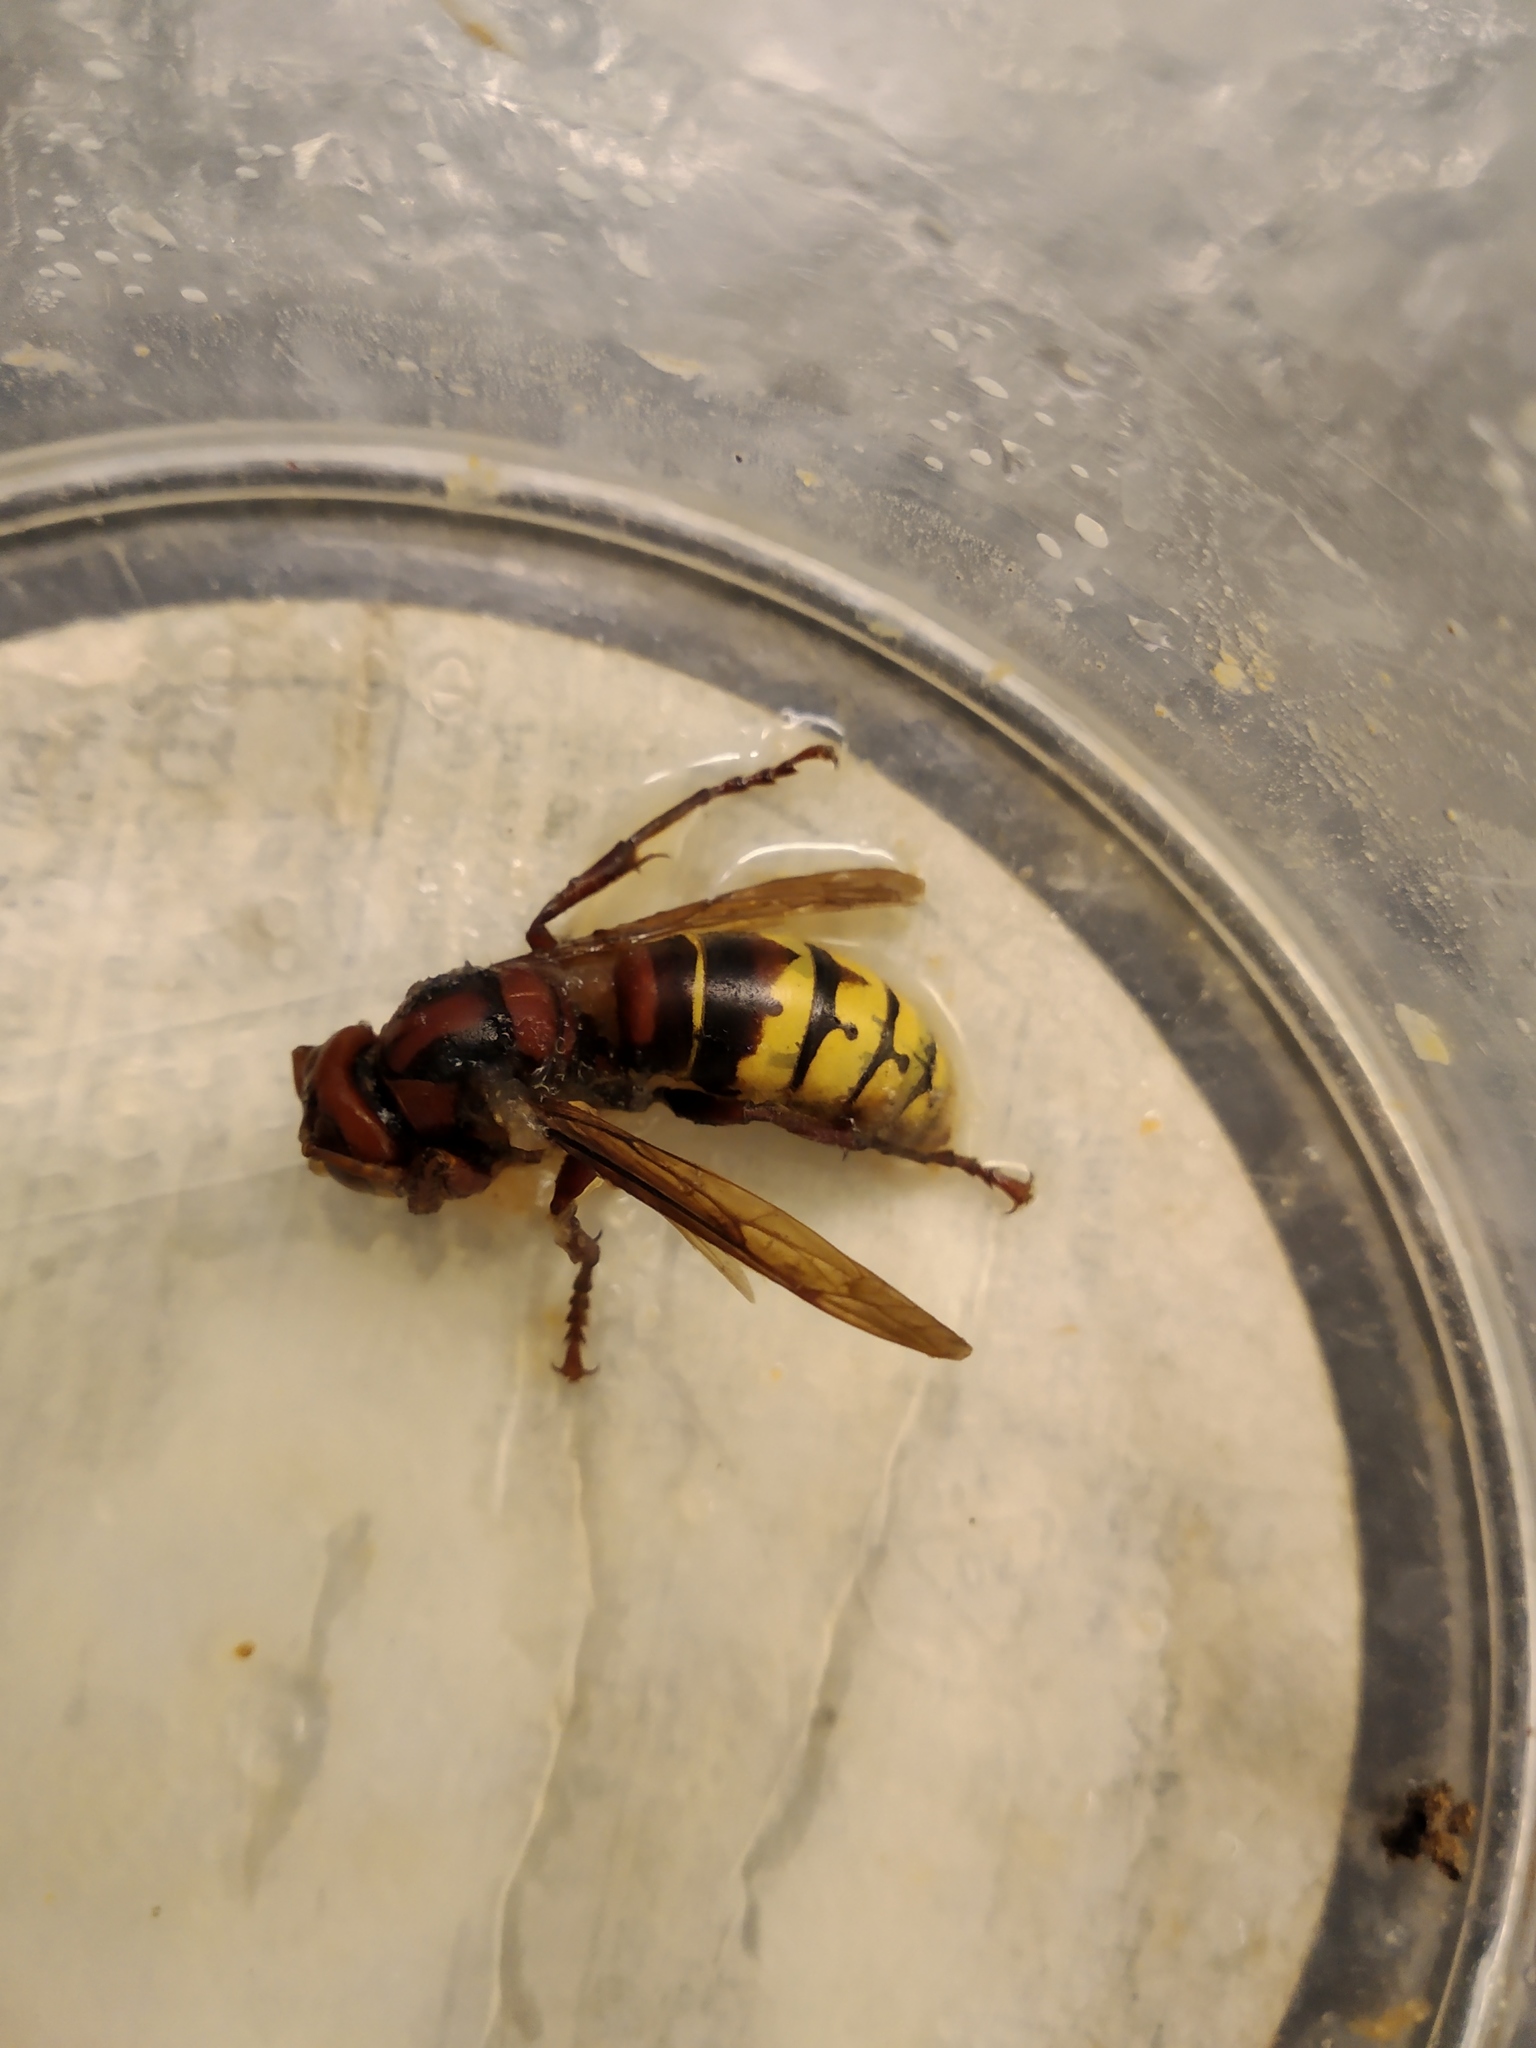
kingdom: Animalia
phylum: Arthropoda
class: Insecta
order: Hymenoptera
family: Vespidae
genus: Vespa
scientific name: Vespa crabro
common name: Hornet
